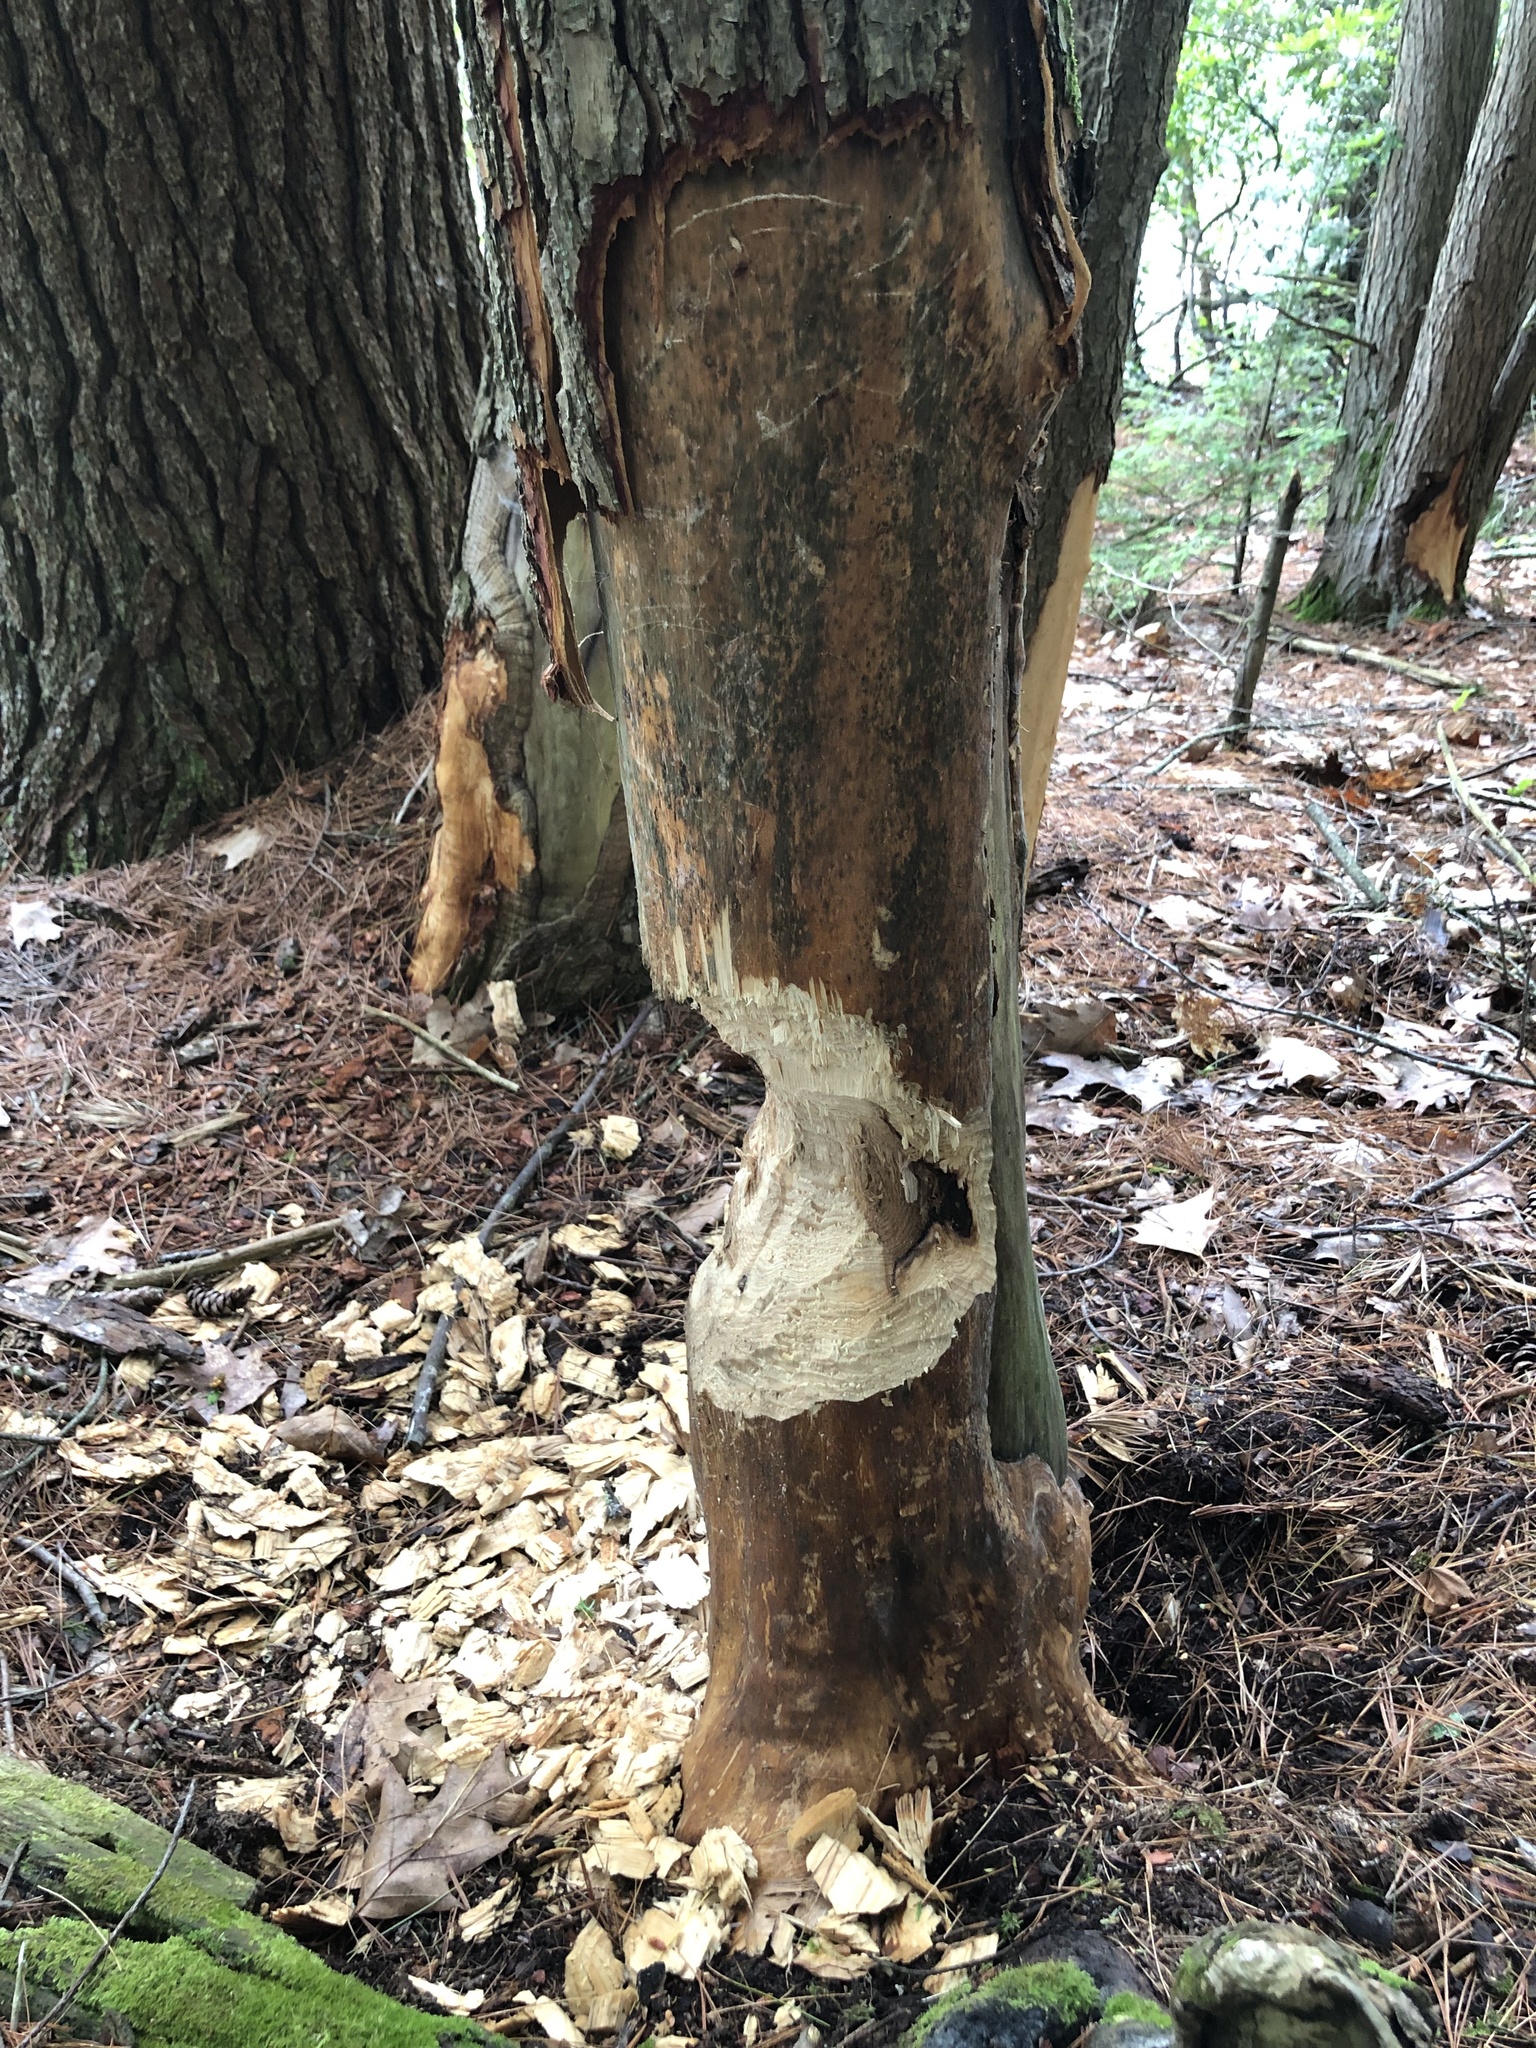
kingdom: Animalia
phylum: Chordata
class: Mammalia
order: Rodentia
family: Castoridae
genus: Castor
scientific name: Castor canadensis
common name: American beaver
